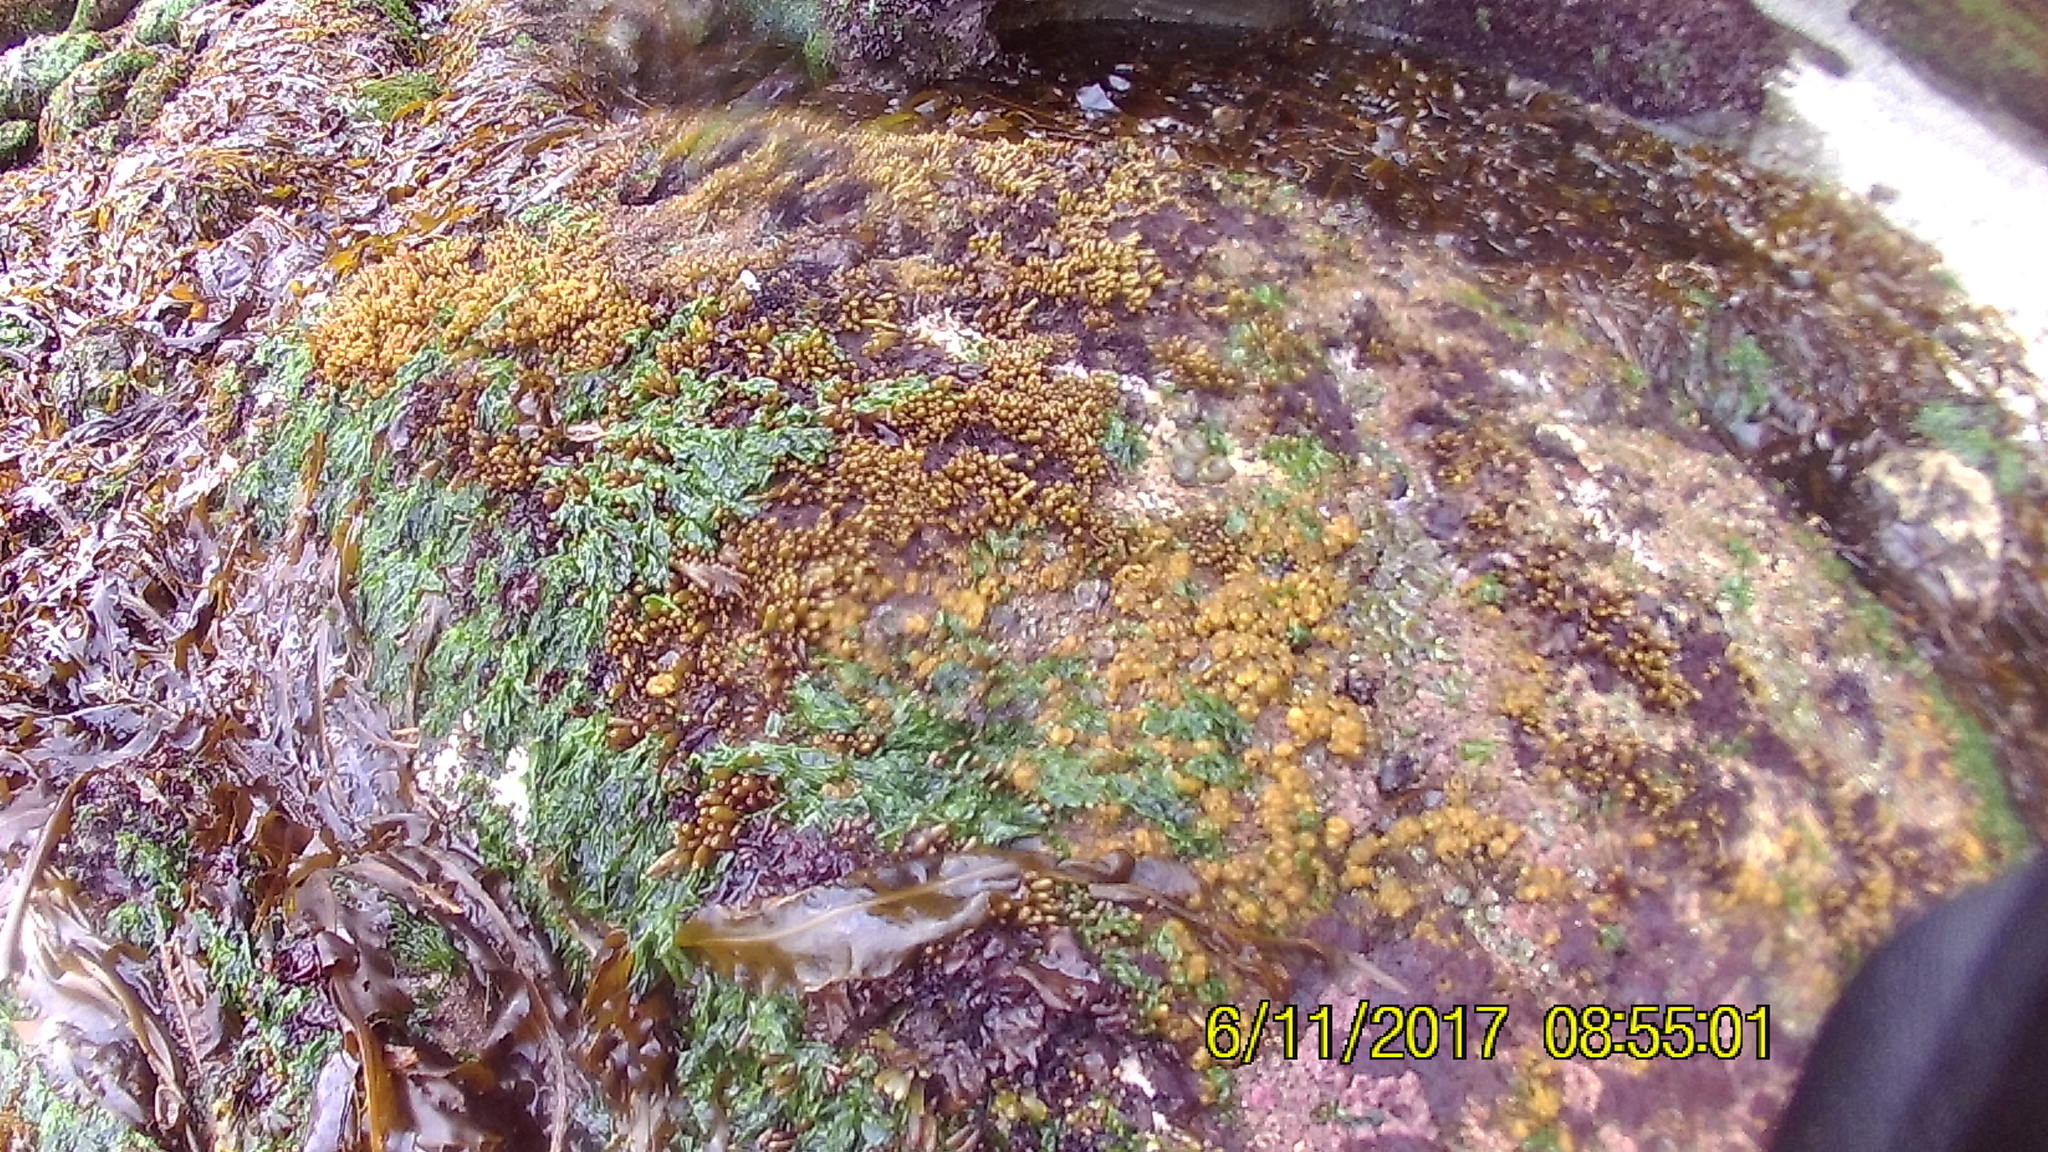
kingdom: Plantae
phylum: Rhodophyta
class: Florideophyceae
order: Palmariales
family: Palmariaceae
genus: Halosaccion
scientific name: Halosaccion glandiforme
